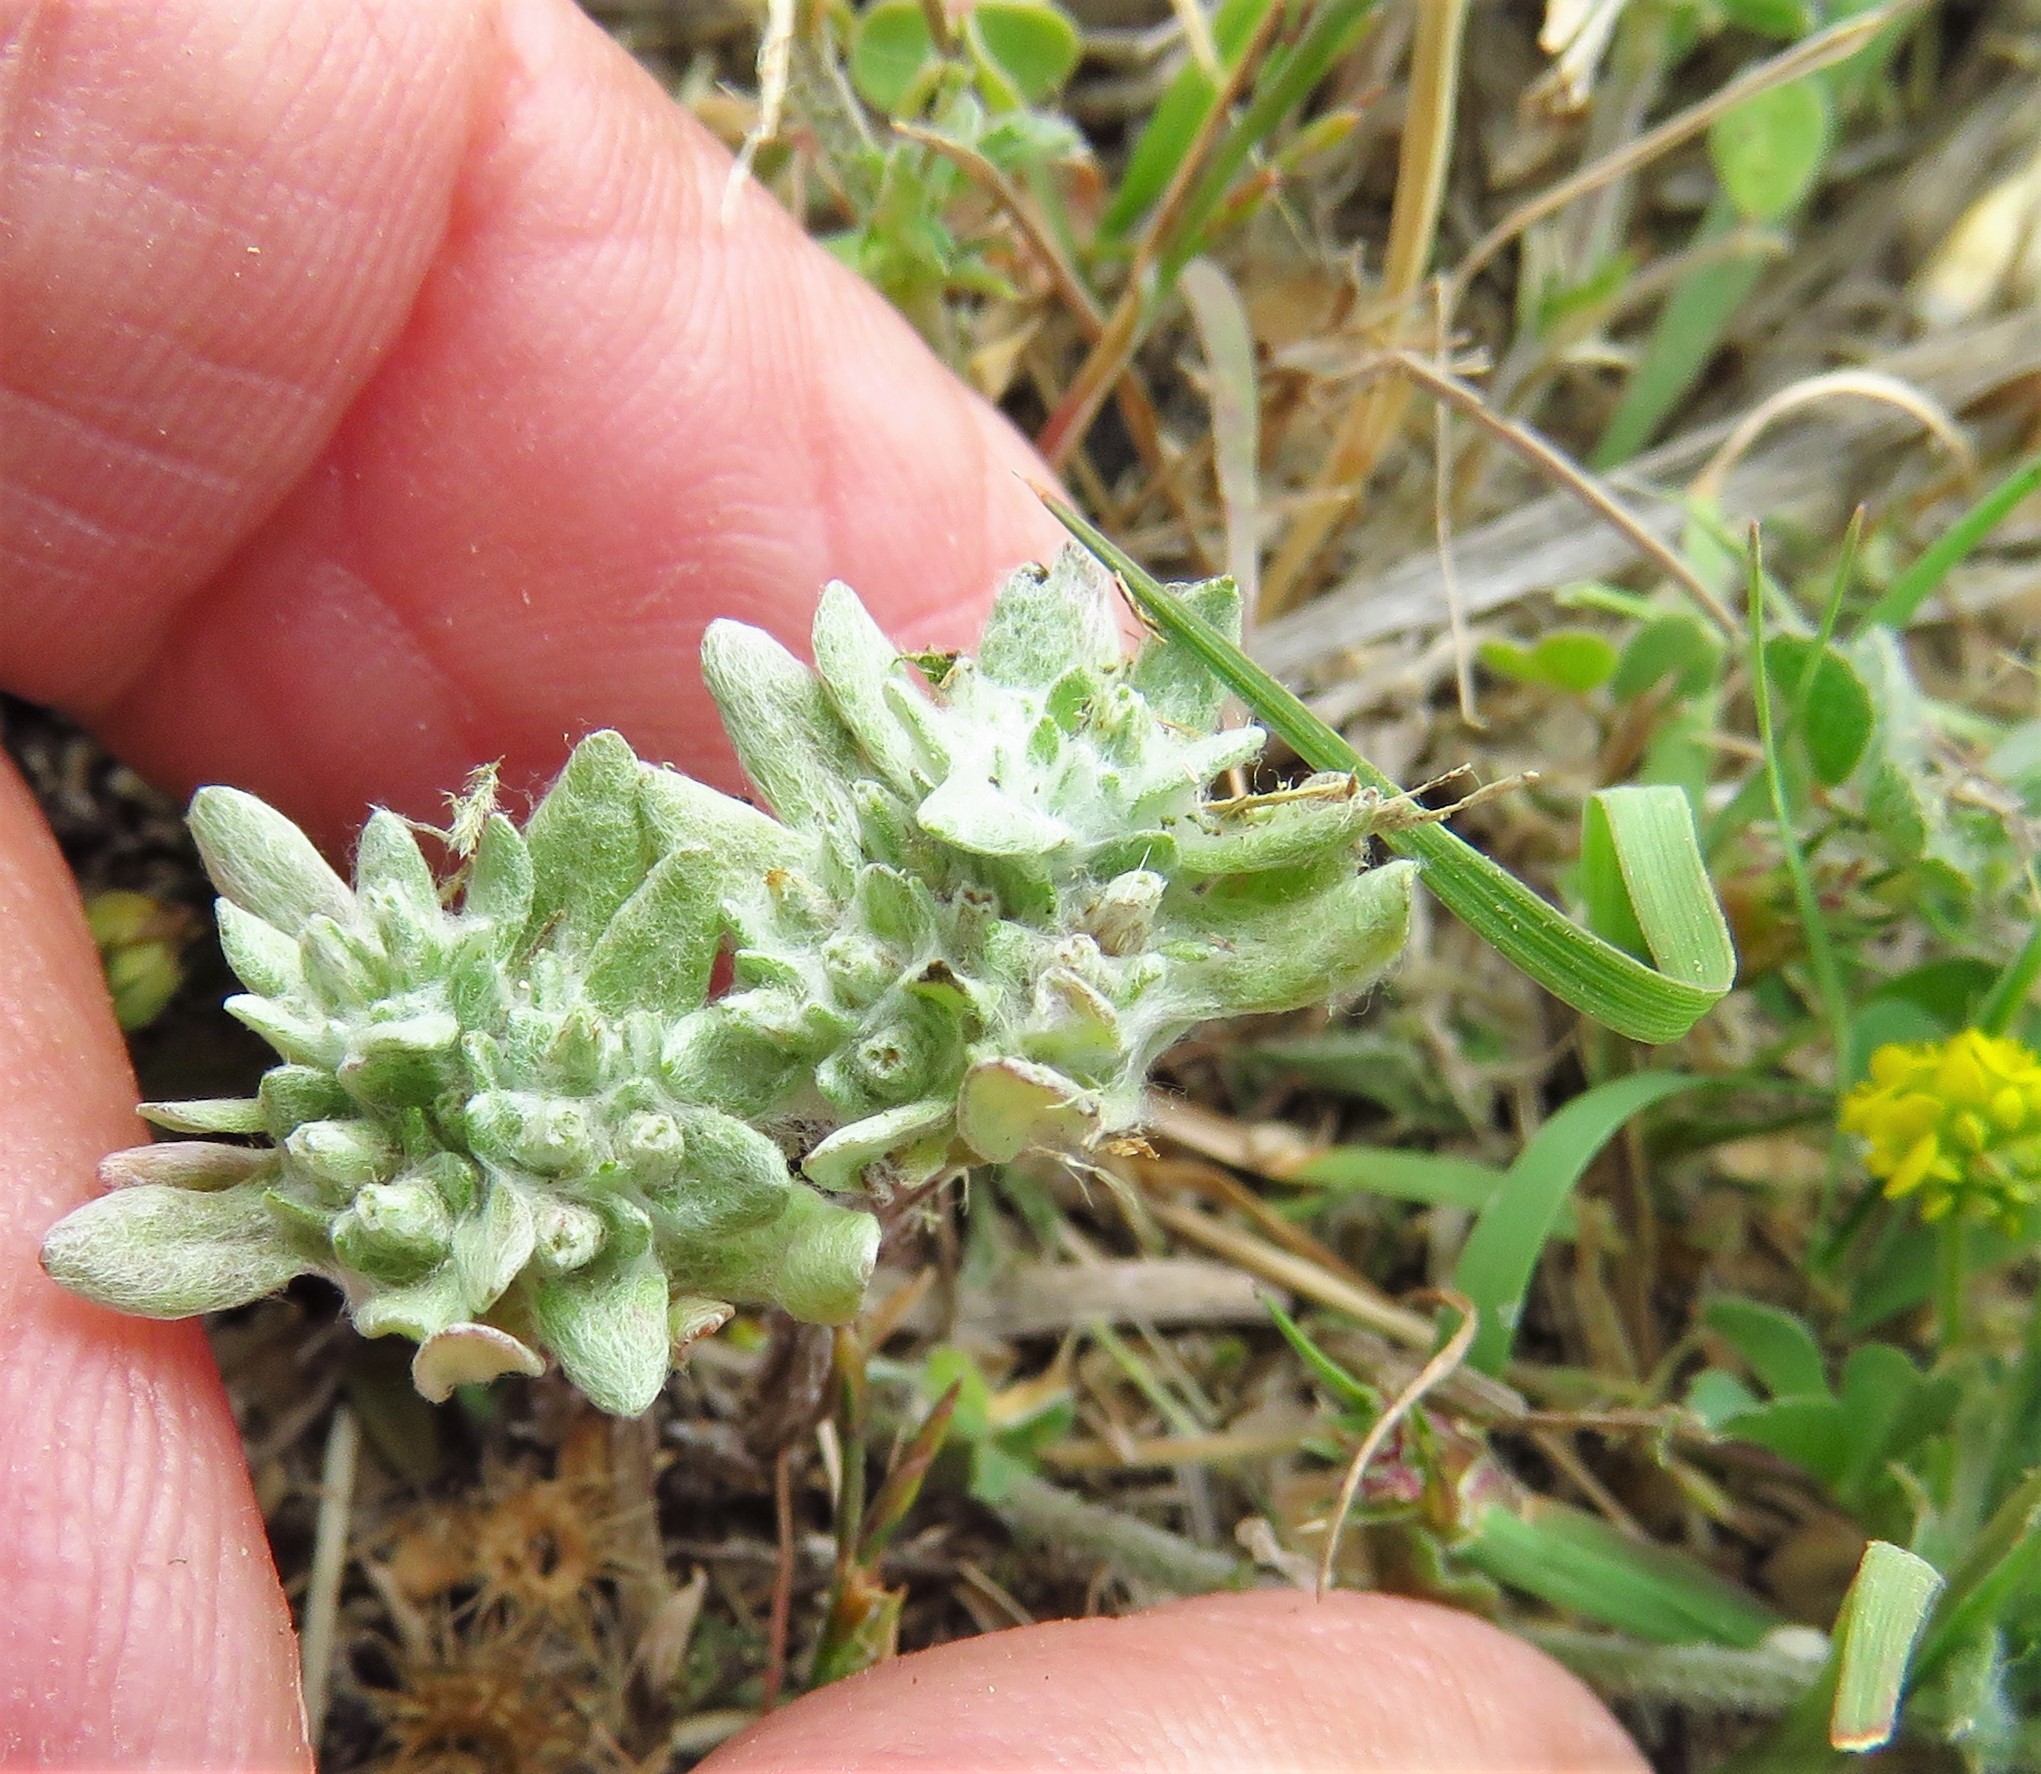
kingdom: Plantae
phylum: Tracheophyta
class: Magnoliopsida
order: Asterales
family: Asteraceae
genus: Diaperia
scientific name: Diaperia prolifera
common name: Big-head rabbit-tobacco
